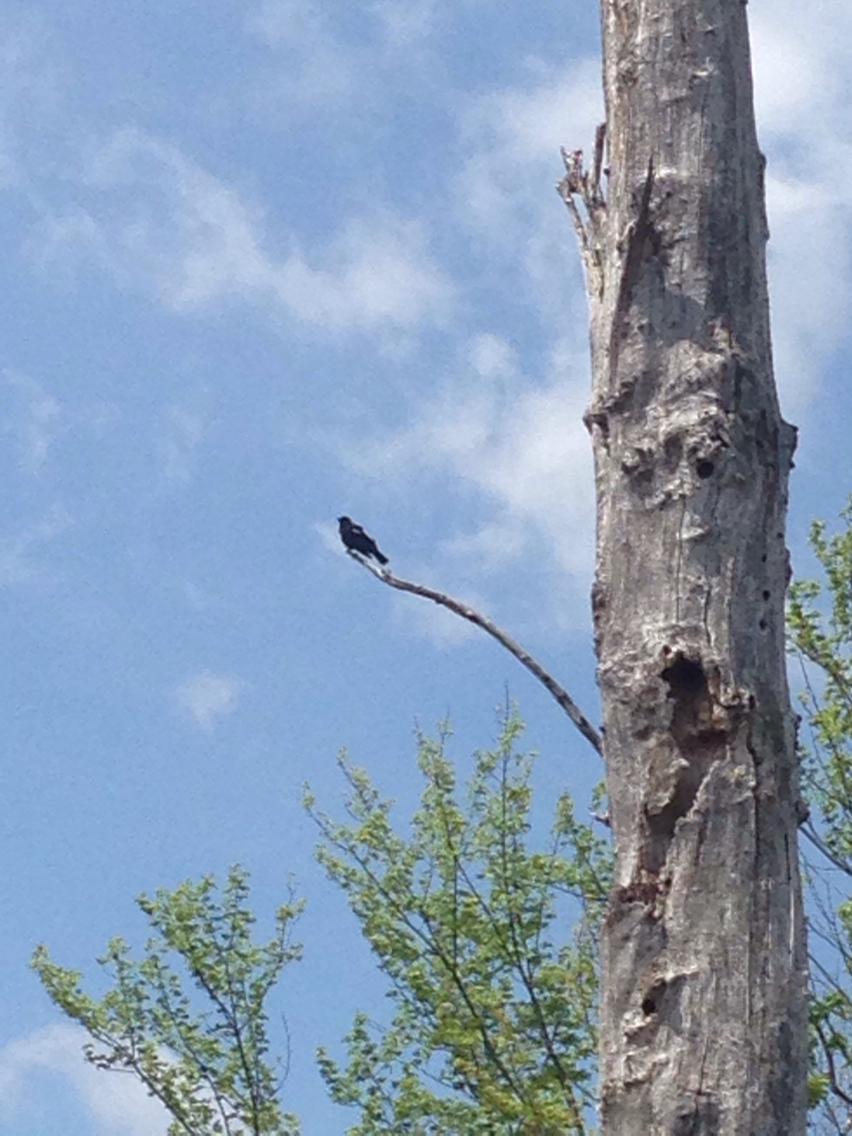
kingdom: Animalia
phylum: Chordata
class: Aves
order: Passeriformes
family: Icteridae
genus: Agelaius
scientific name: Agelaius phoeniceus
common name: Red-winged blackbird
